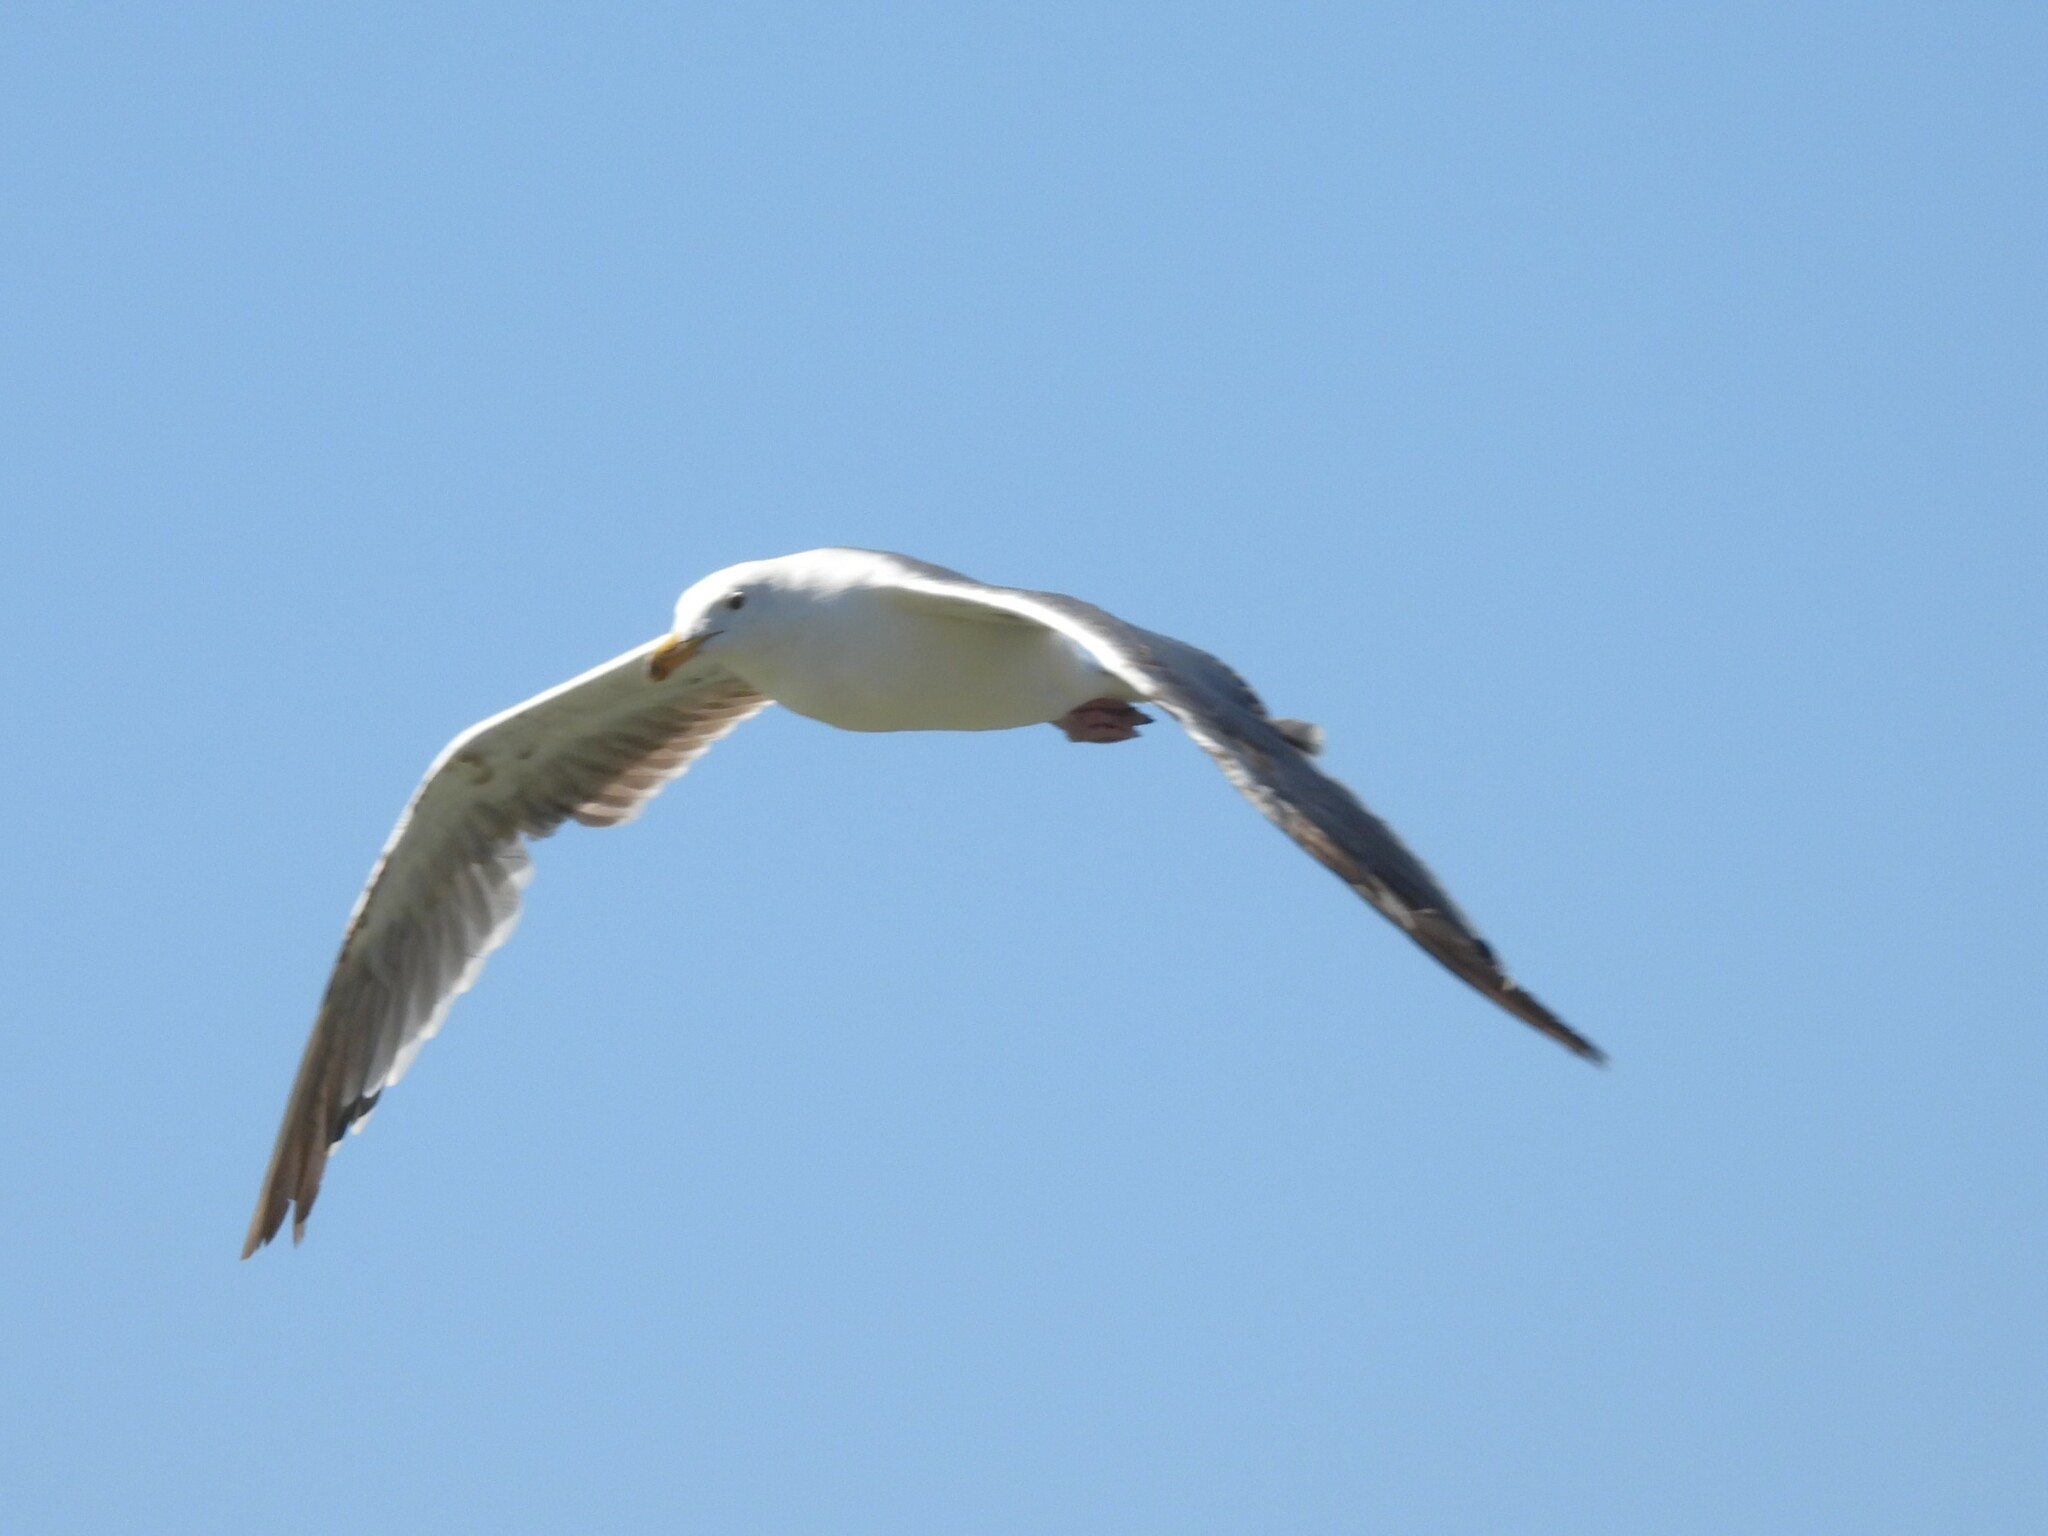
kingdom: Animalia
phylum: Chordata
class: Aves
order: Charadriiformes
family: Laridae
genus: Larus
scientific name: Larus occidentalis
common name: Western gull
